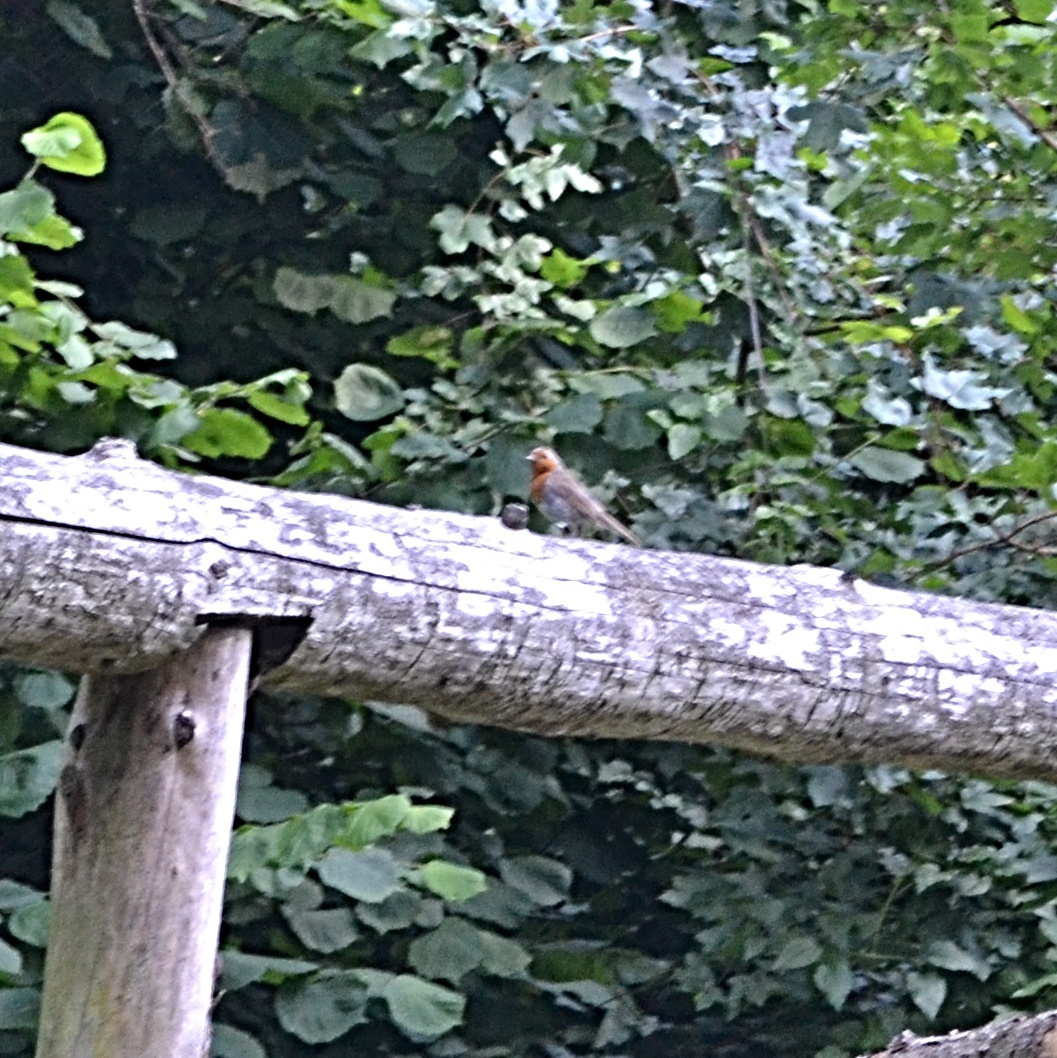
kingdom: Animalia
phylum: Chordata
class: Aves
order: Passeriformes
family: Muscicapidae
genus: Erithacus
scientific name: Erithacus rubecula
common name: European robin
